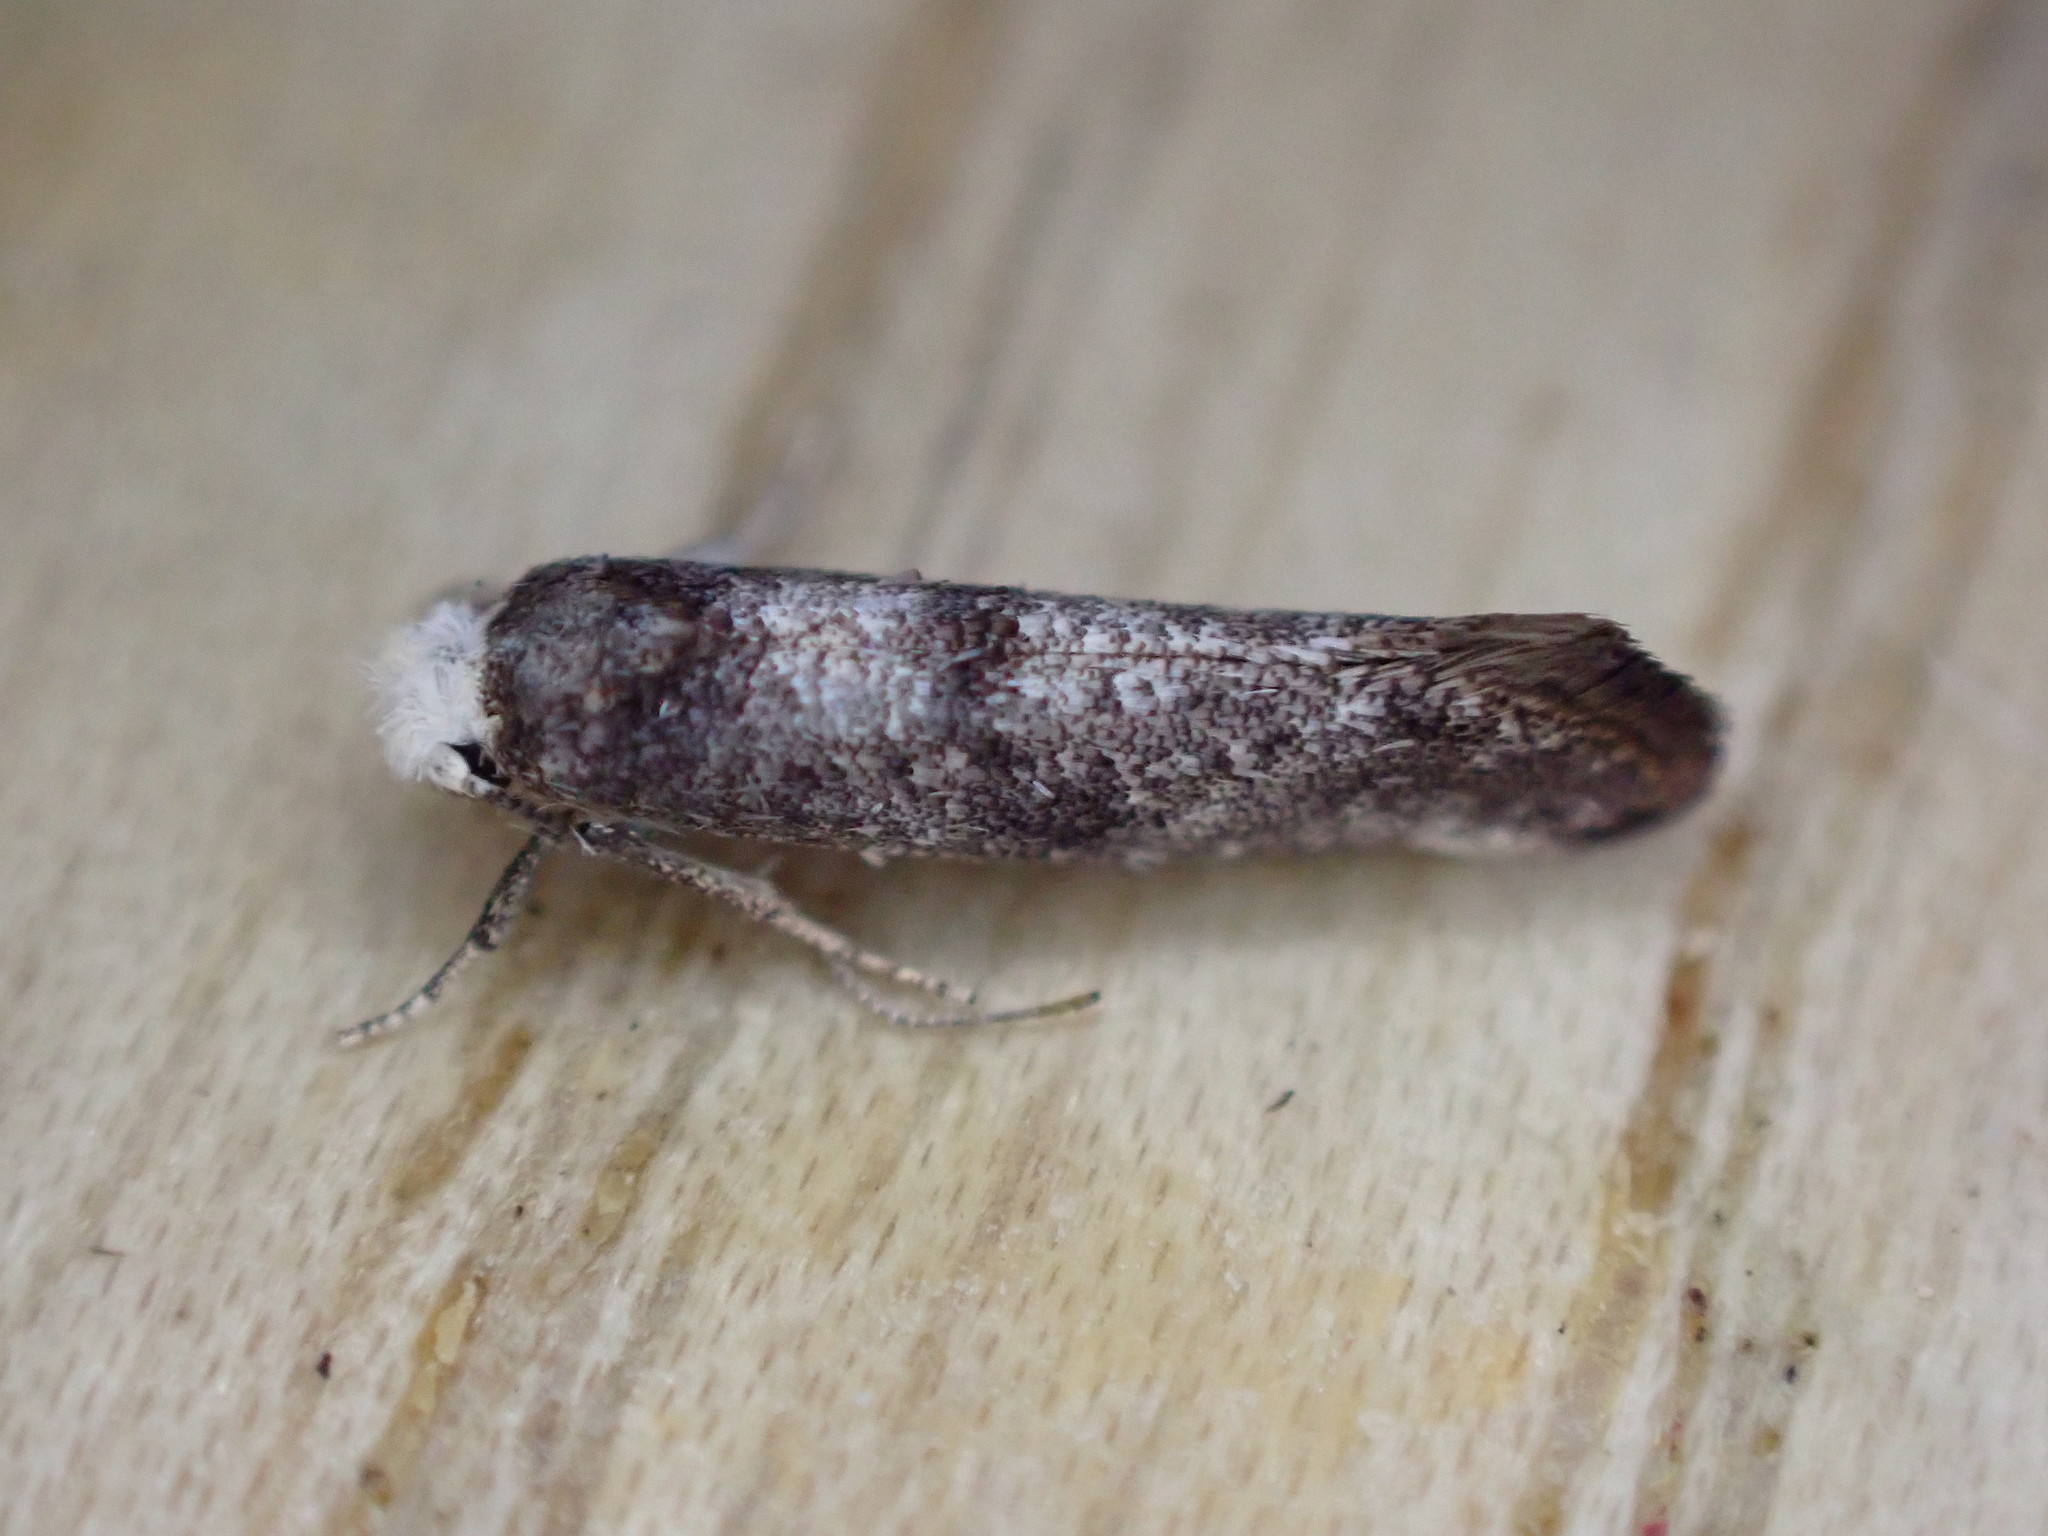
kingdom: Animalia
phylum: Arthropoda
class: Insecta
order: Lepidoptera
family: Yponomeutidae
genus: Paraswammerdamia
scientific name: Paraswammerdamia lutarea
